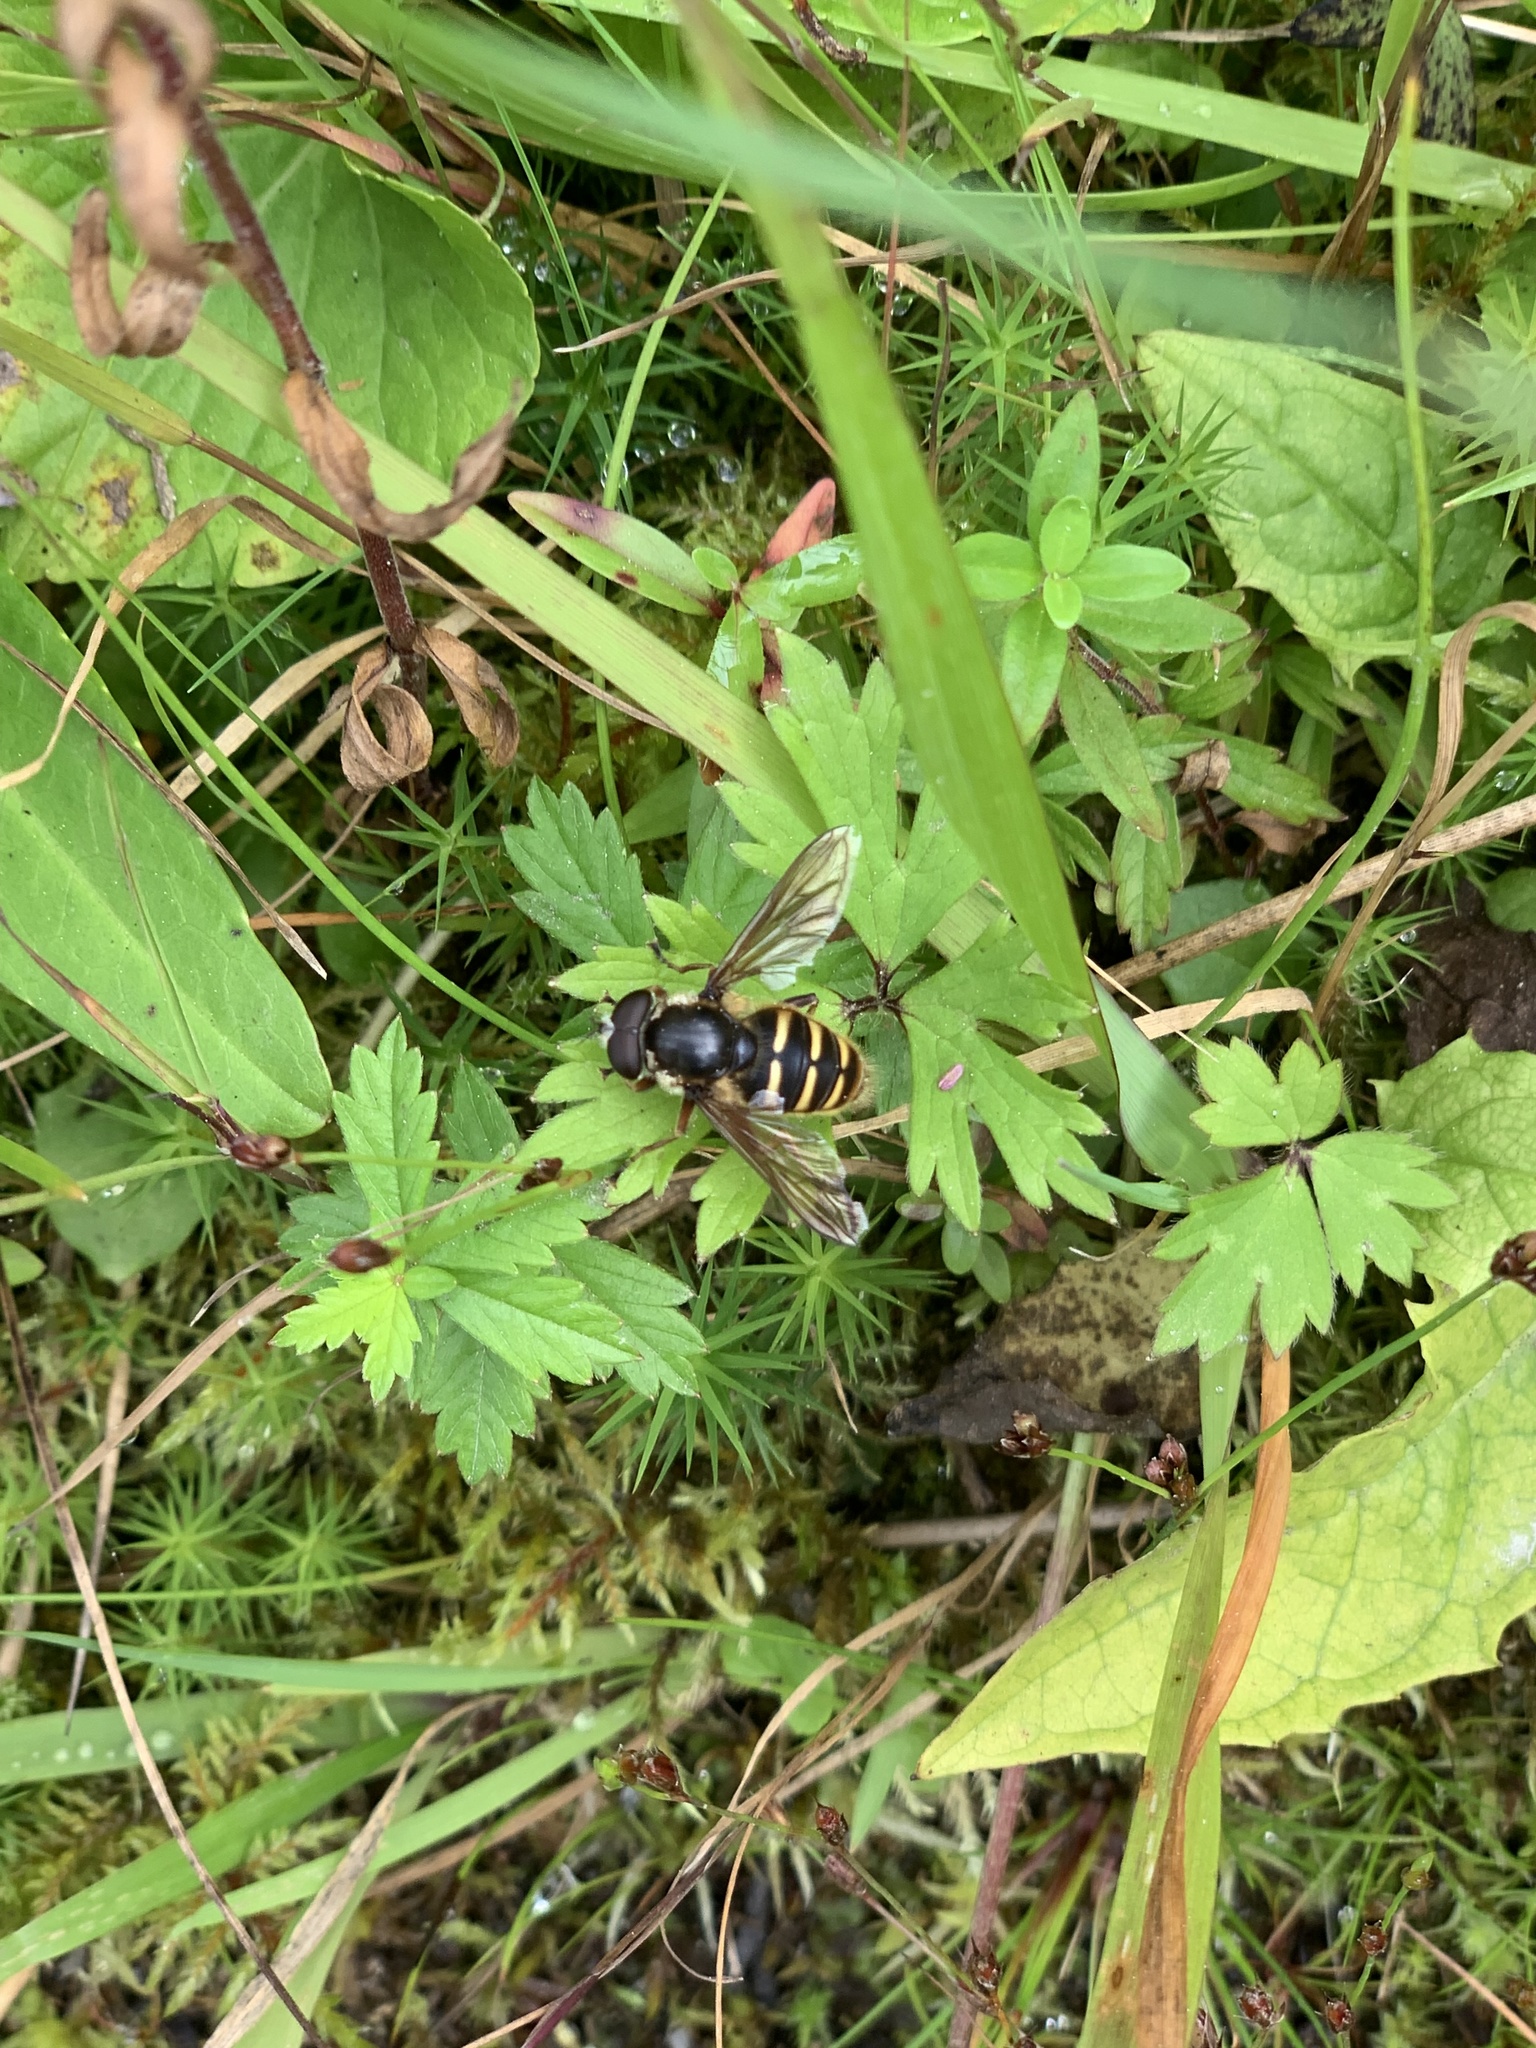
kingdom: Animalia
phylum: Arthropoda
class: Insecta
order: Diptera
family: Syrphidae
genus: Sericomyia
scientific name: Sericomyia silentis
